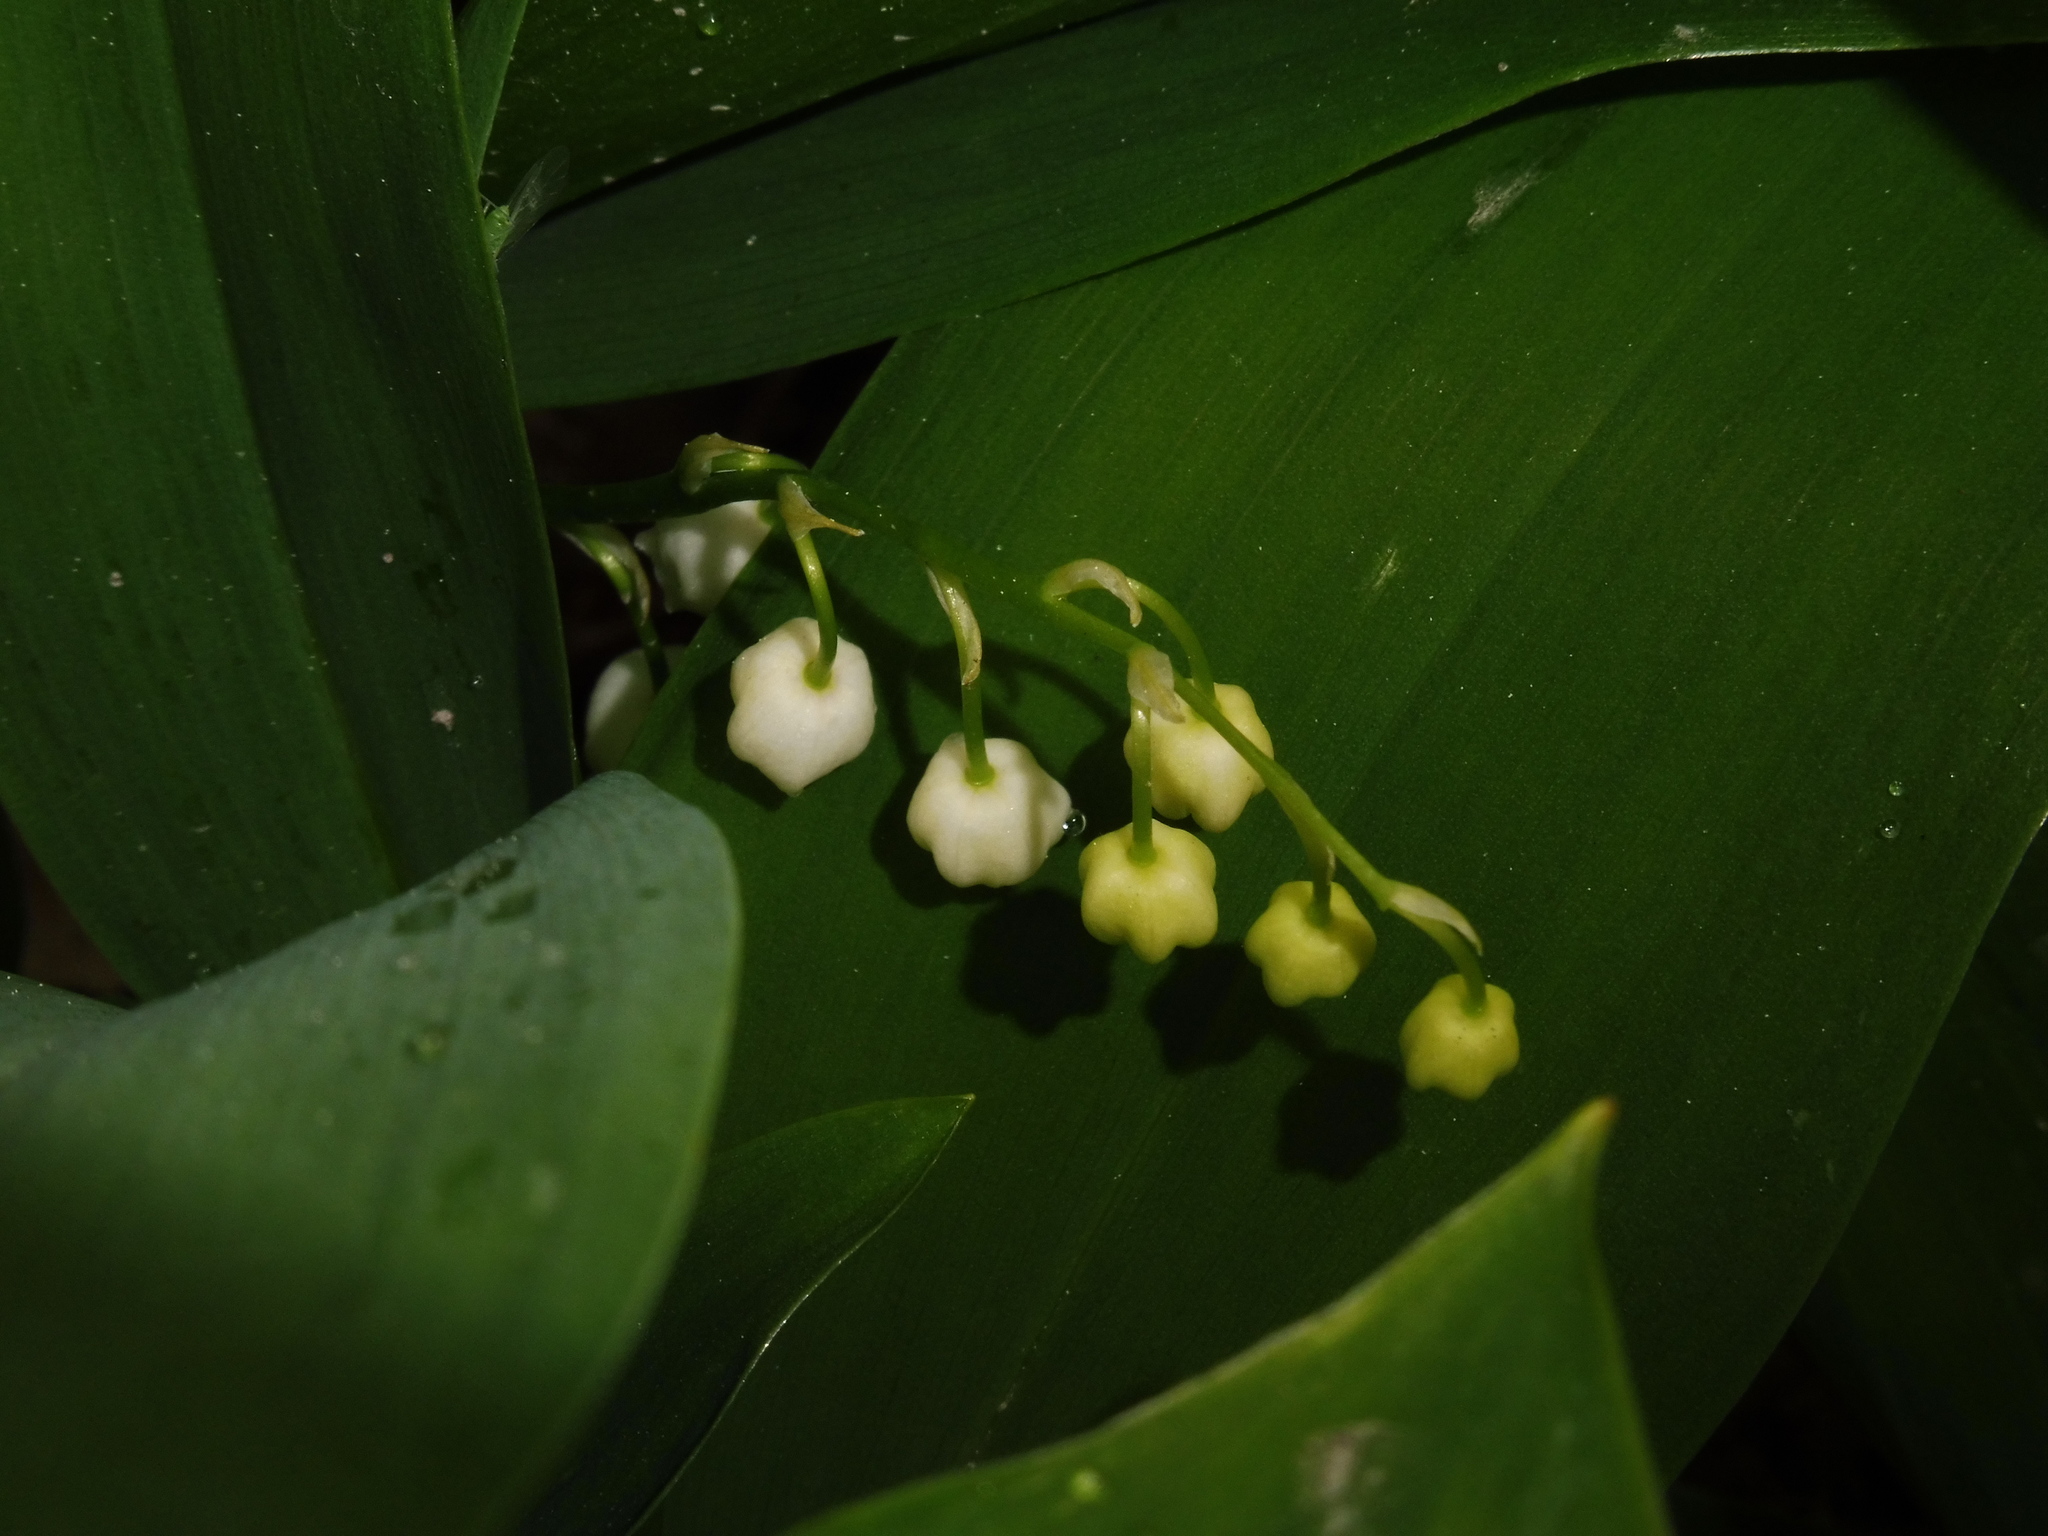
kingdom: Plantae
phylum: Tracheophyta
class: Liliopsida
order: Asparagales
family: Asparagaceae
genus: Convallaria
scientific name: Convallaria majalis
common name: Lily-of-the-valley
